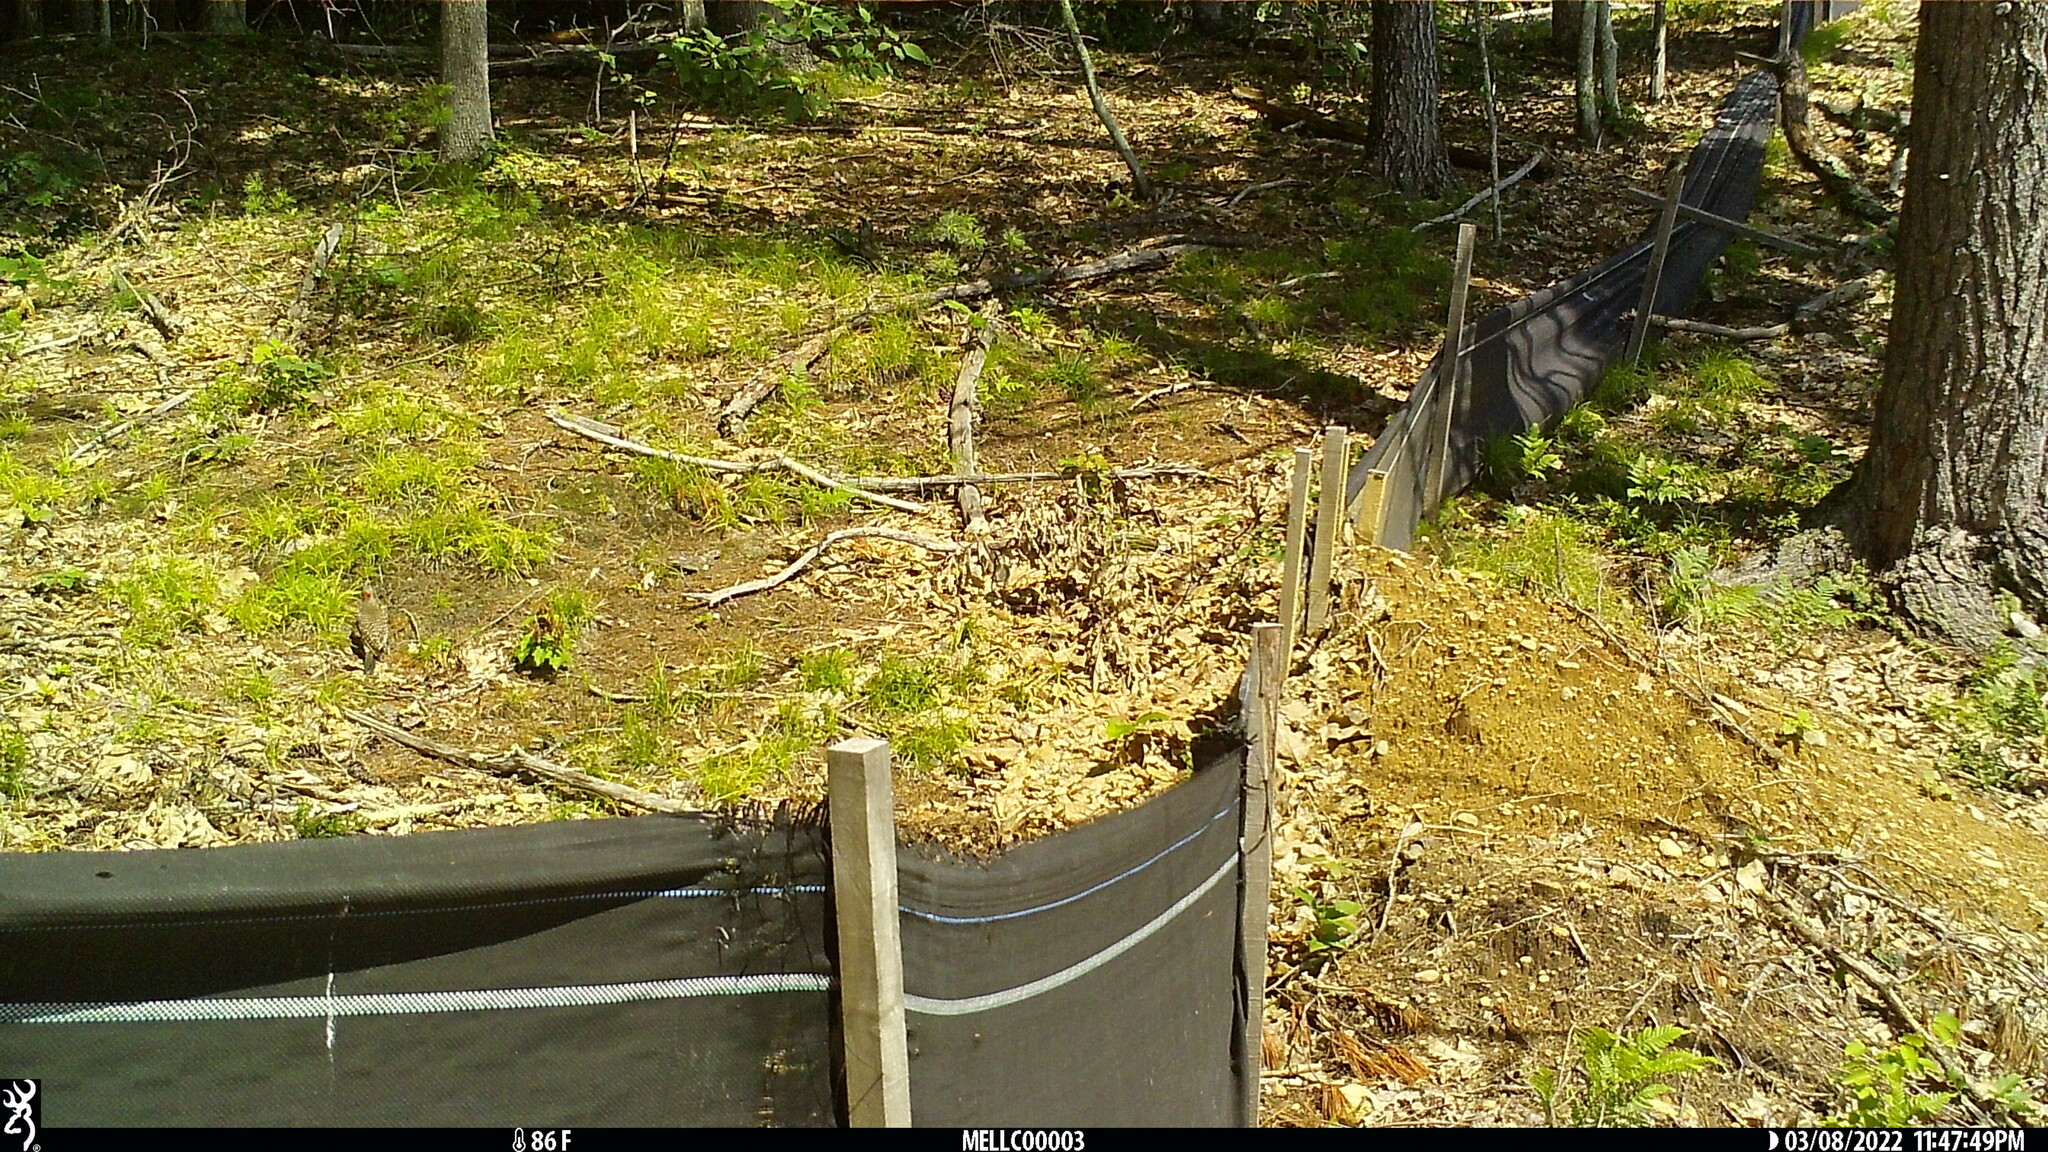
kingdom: Animalia
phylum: Chordata
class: Aves
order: Piciformes
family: Picidae
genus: Colaptes
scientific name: Colaptes auratus
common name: Northern flicker
